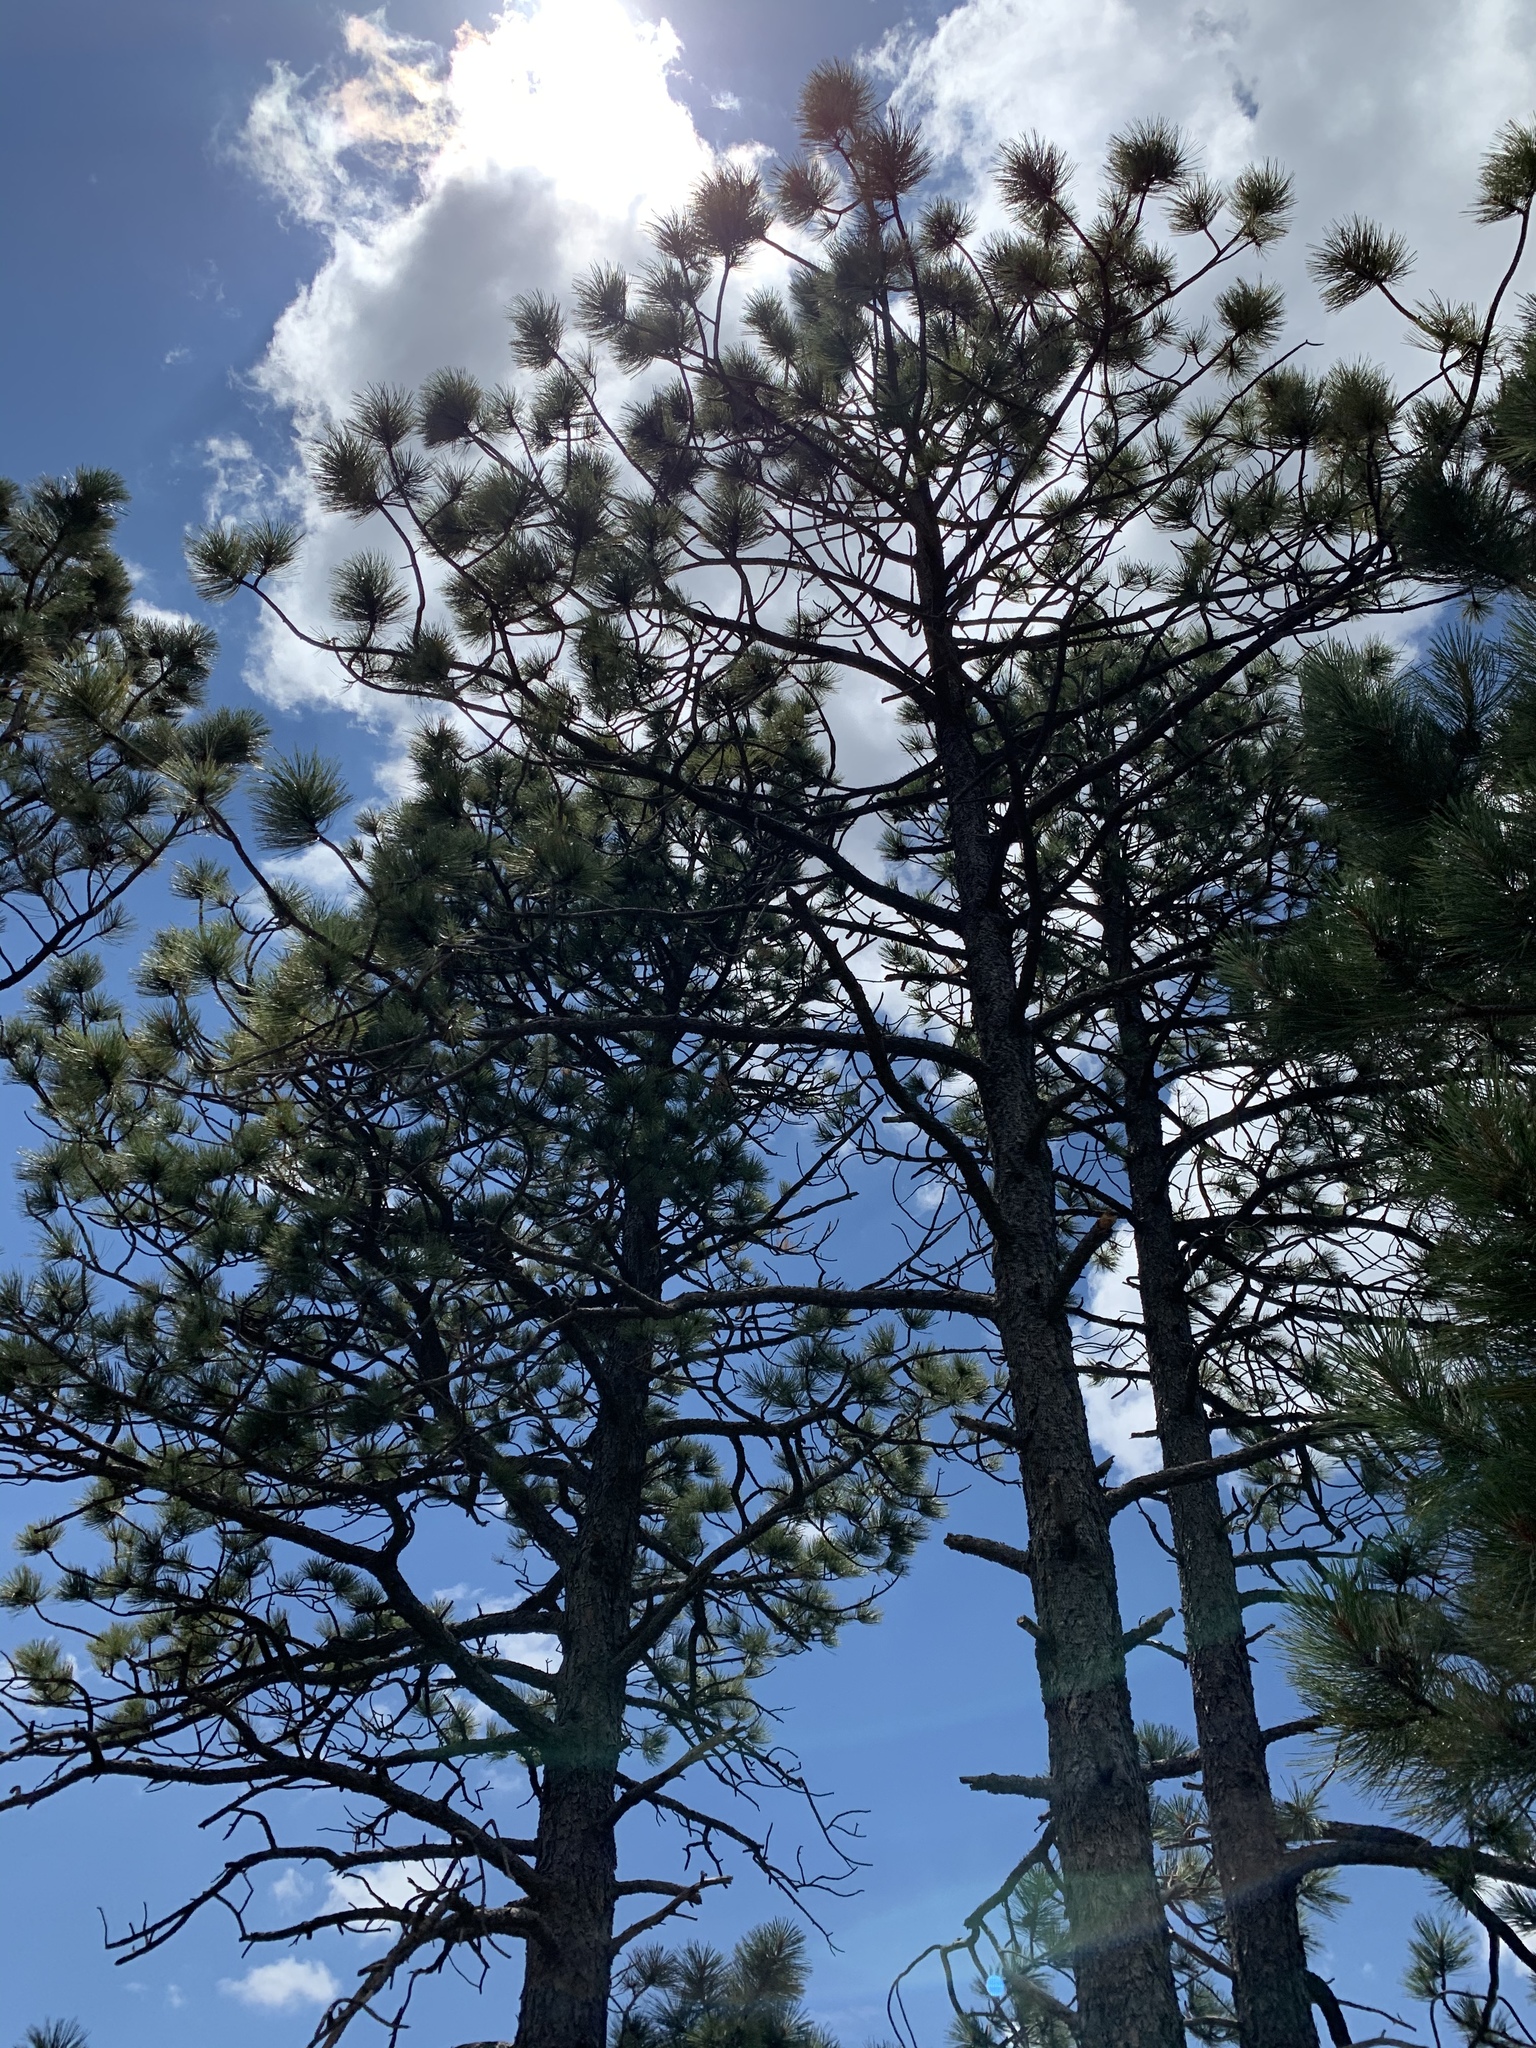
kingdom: Plantae
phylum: Tracheophyta
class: Pinopsida
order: Pinales
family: Pinaceae
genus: Pinus
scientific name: Pinus ponderosa
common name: Western yellow-pine
